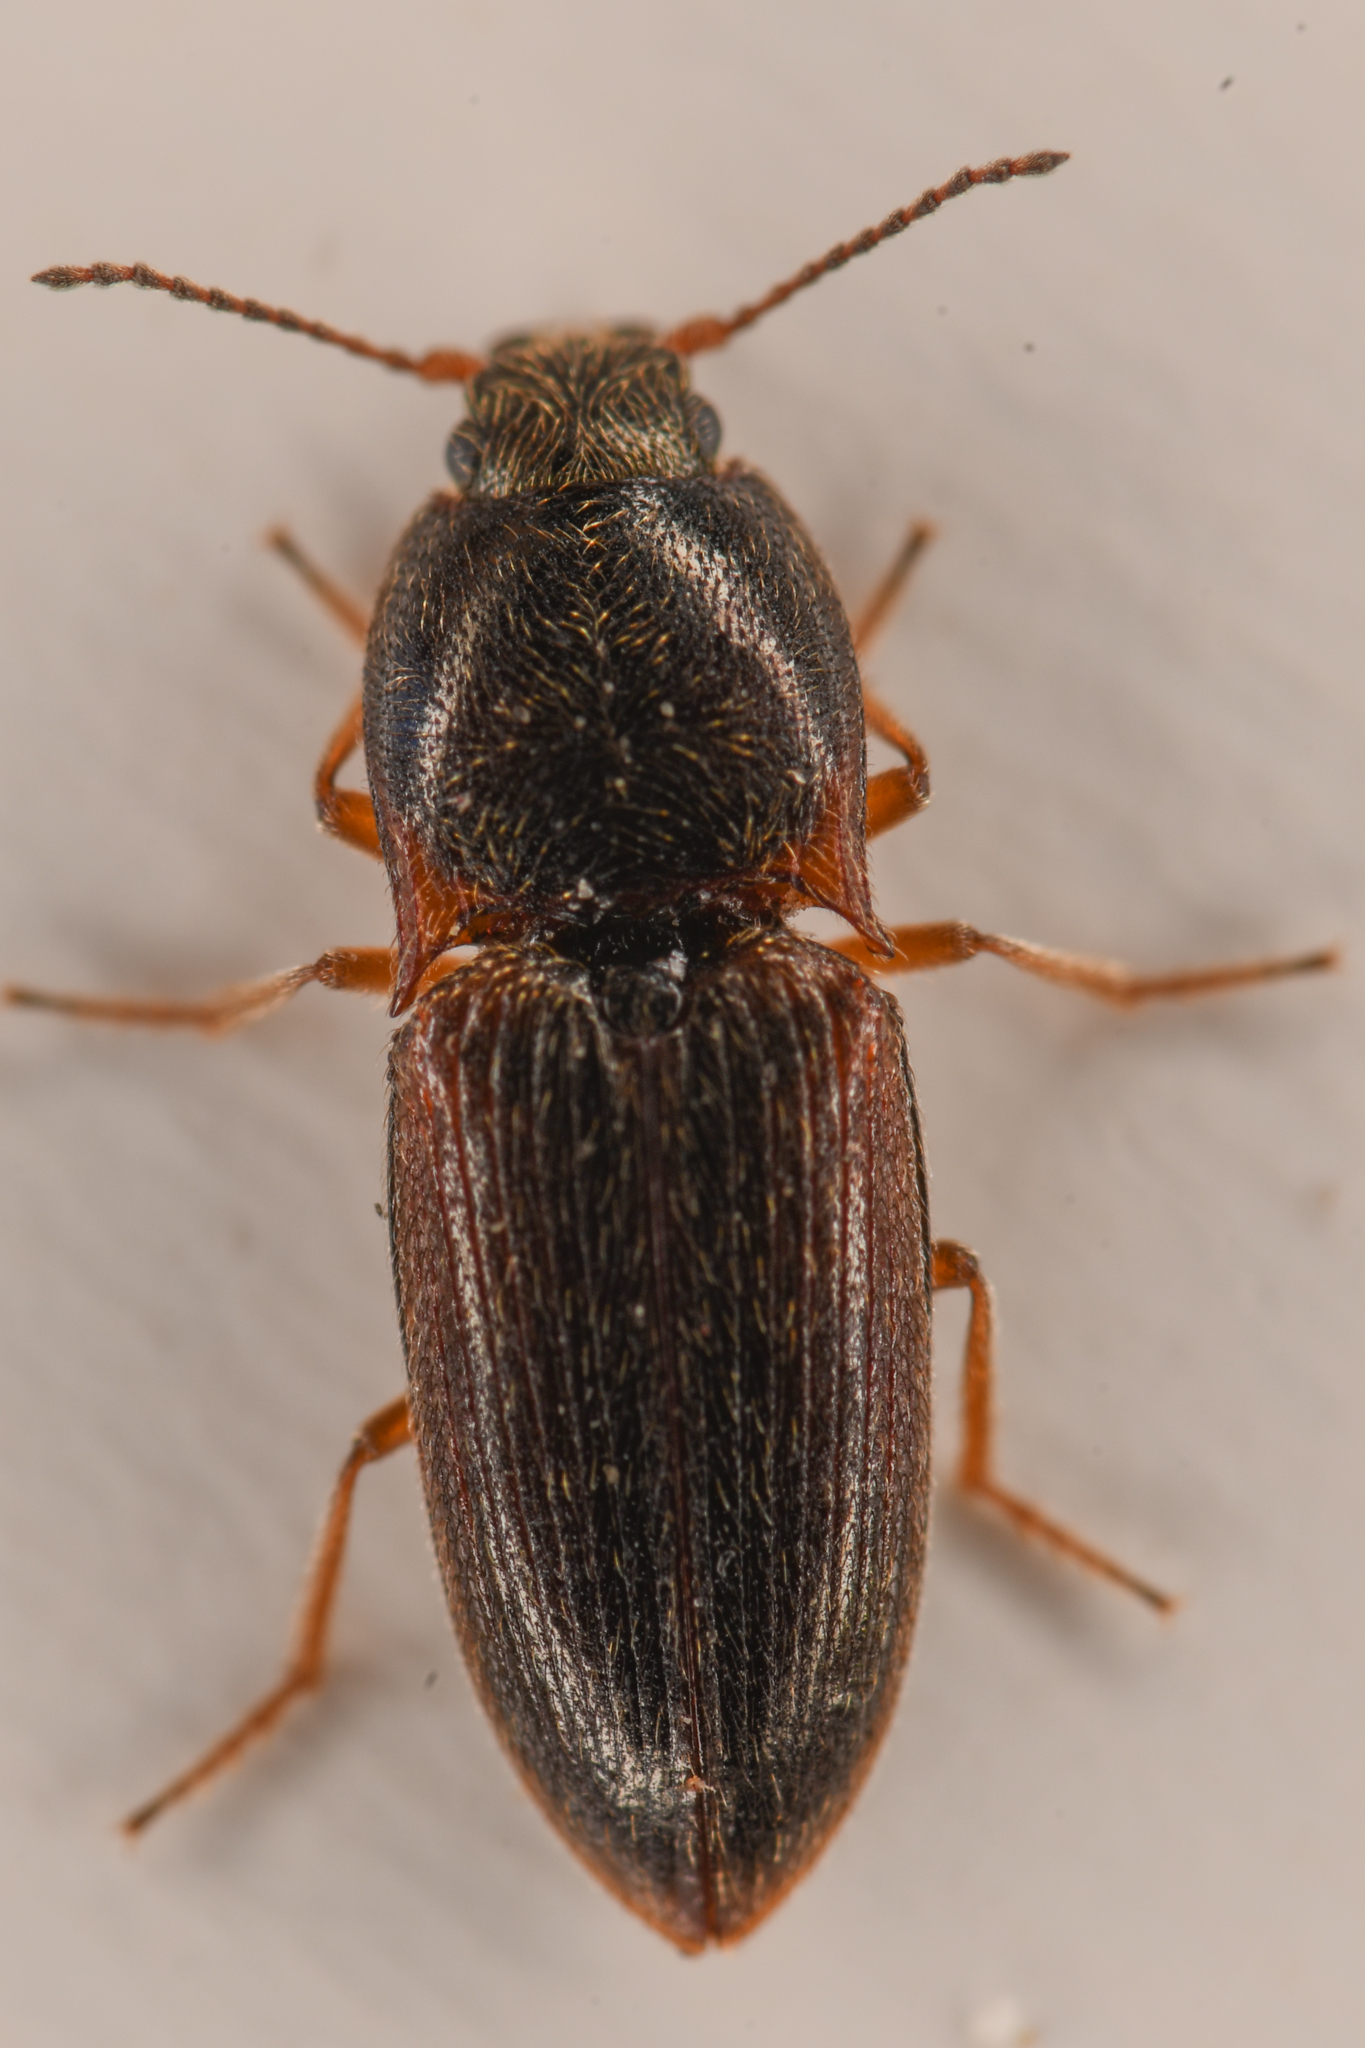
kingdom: Animalia
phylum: Arthropoda
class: Insecta
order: Coleoptera
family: Elateridae
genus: Hypnoidus
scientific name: Hypnoidus bicolor
